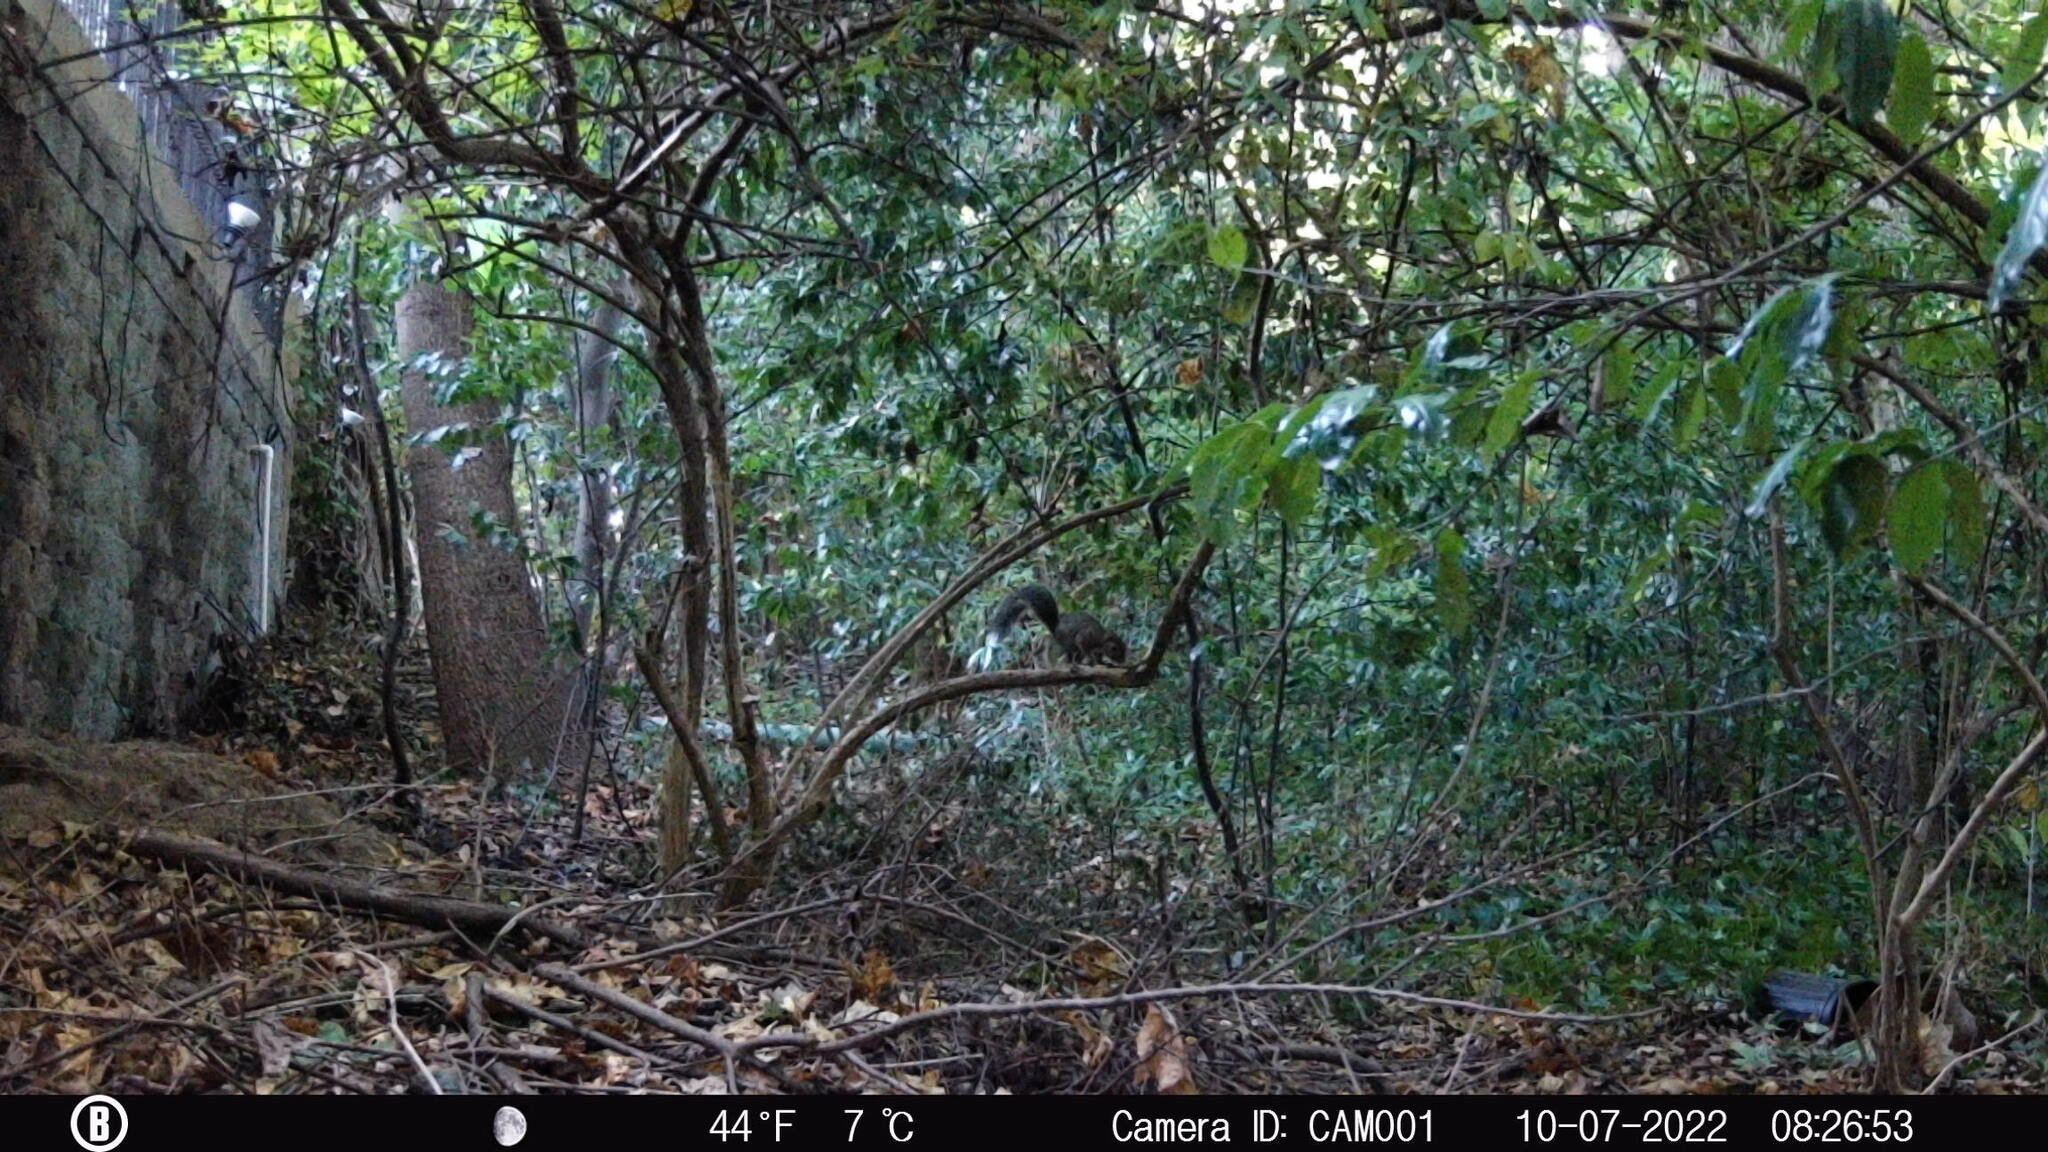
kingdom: Animalia
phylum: Chordata
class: Mammalia
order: Rodentia
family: Sciuridae
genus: Sciurus
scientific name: Sciurus carolinensis
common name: Eastern gray squirrel
